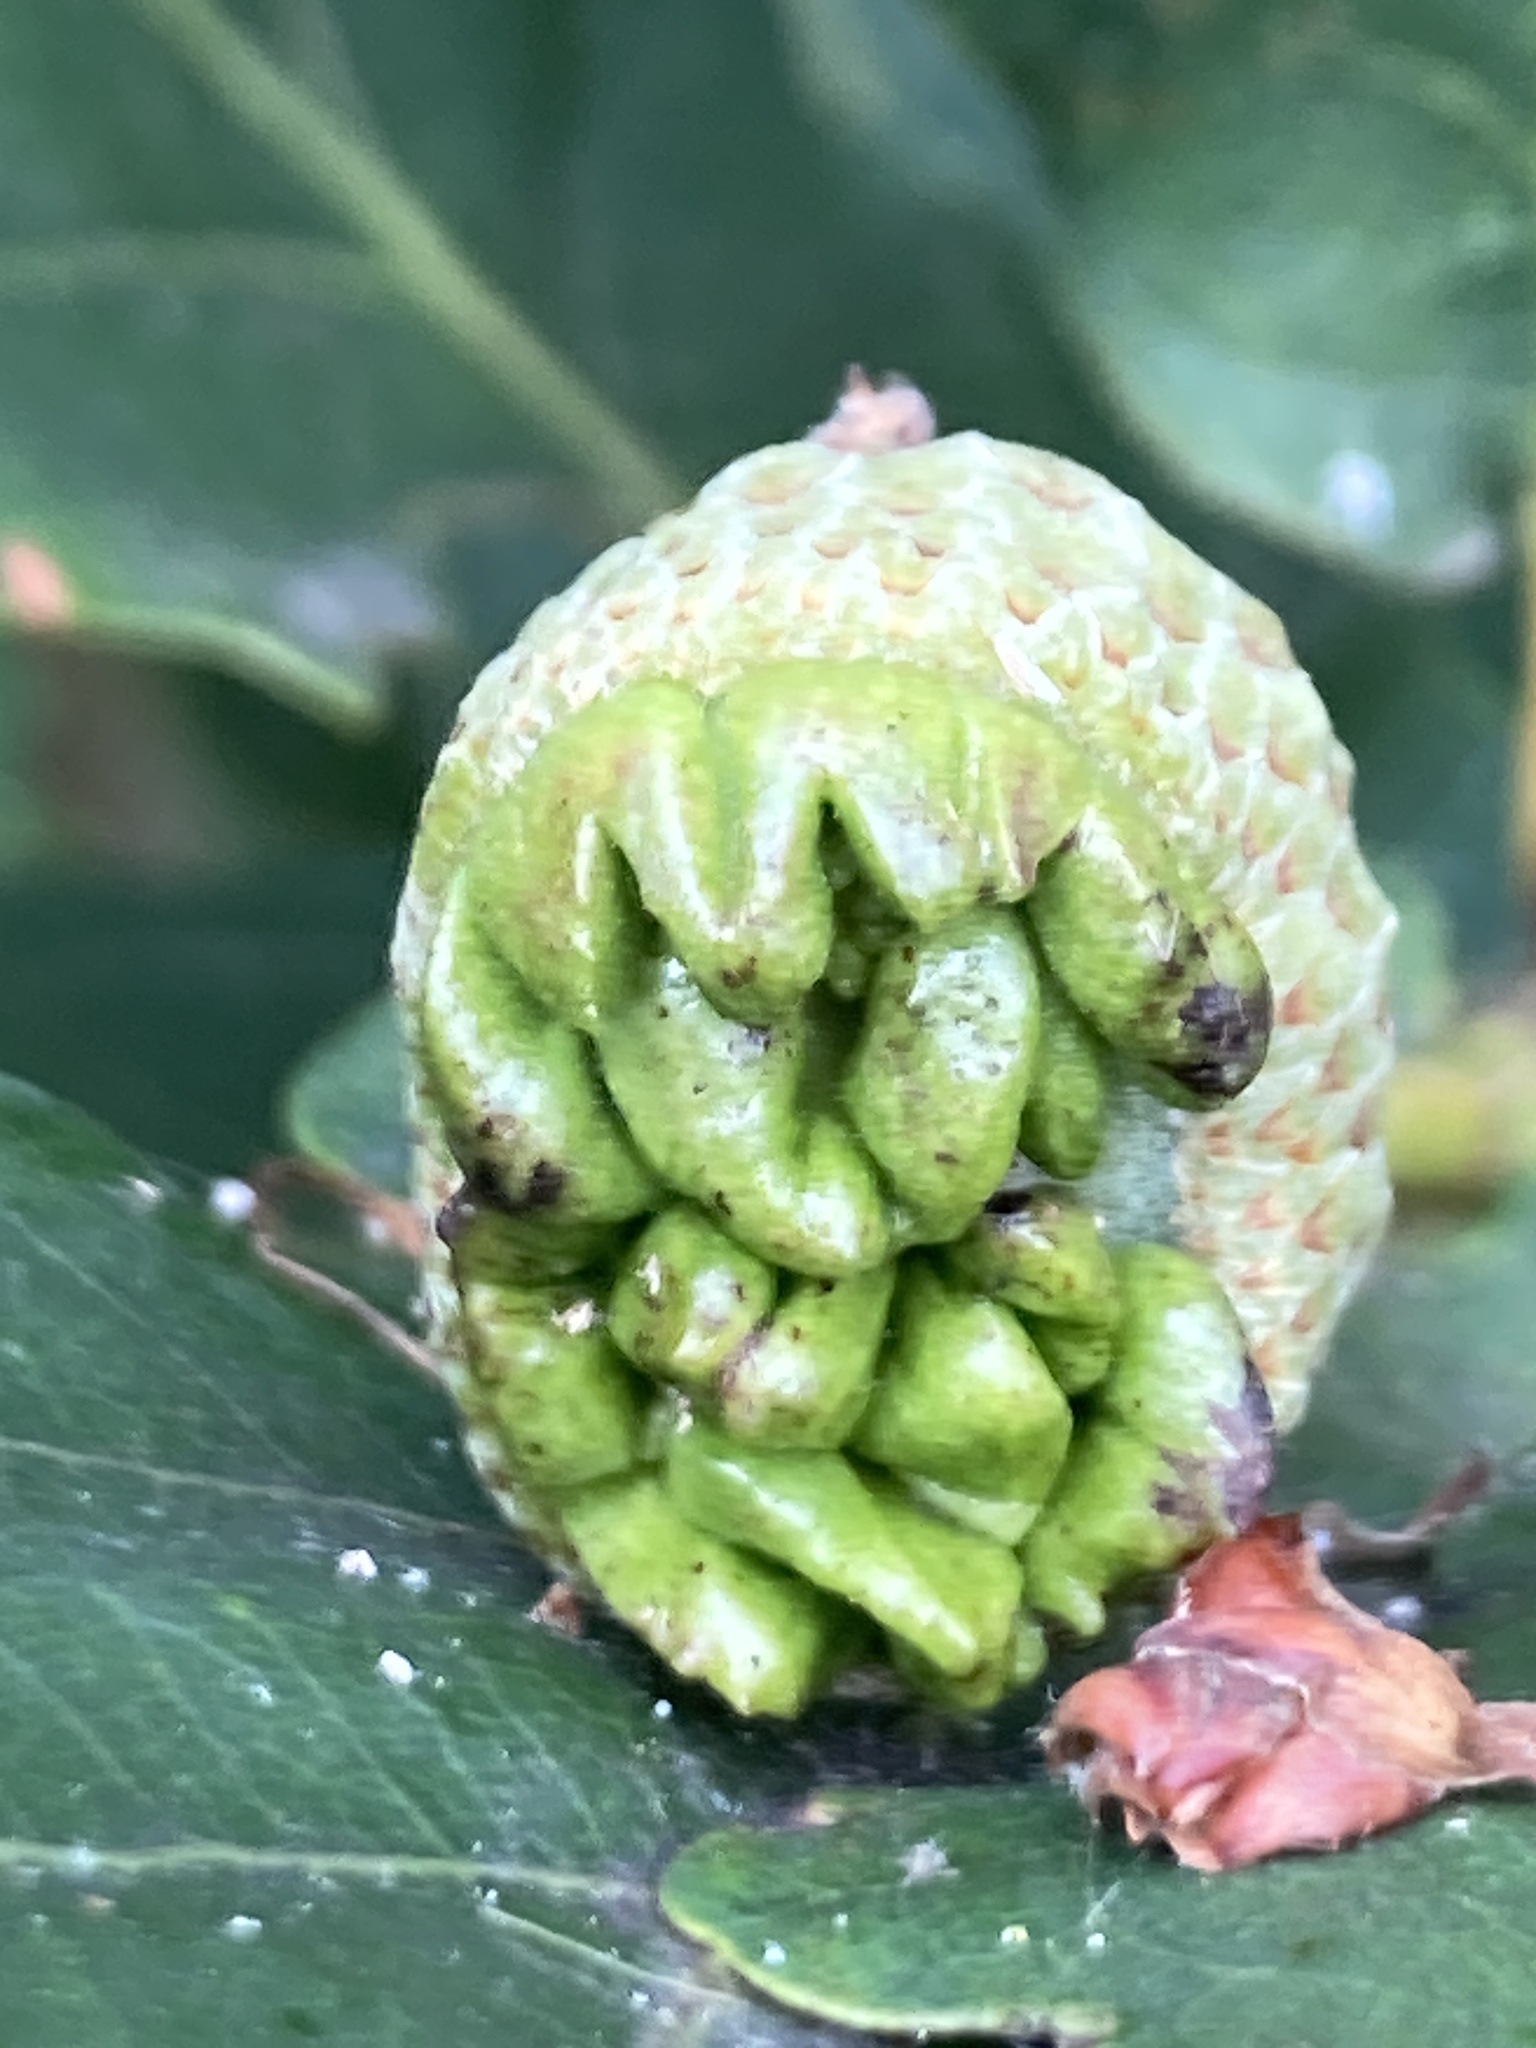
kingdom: Animalia
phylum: Arthropoda
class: Insecta
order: Hymenoptera
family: Cynipidae
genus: Andricus
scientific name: Andricus quercuscalicis
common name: Knopper gall
